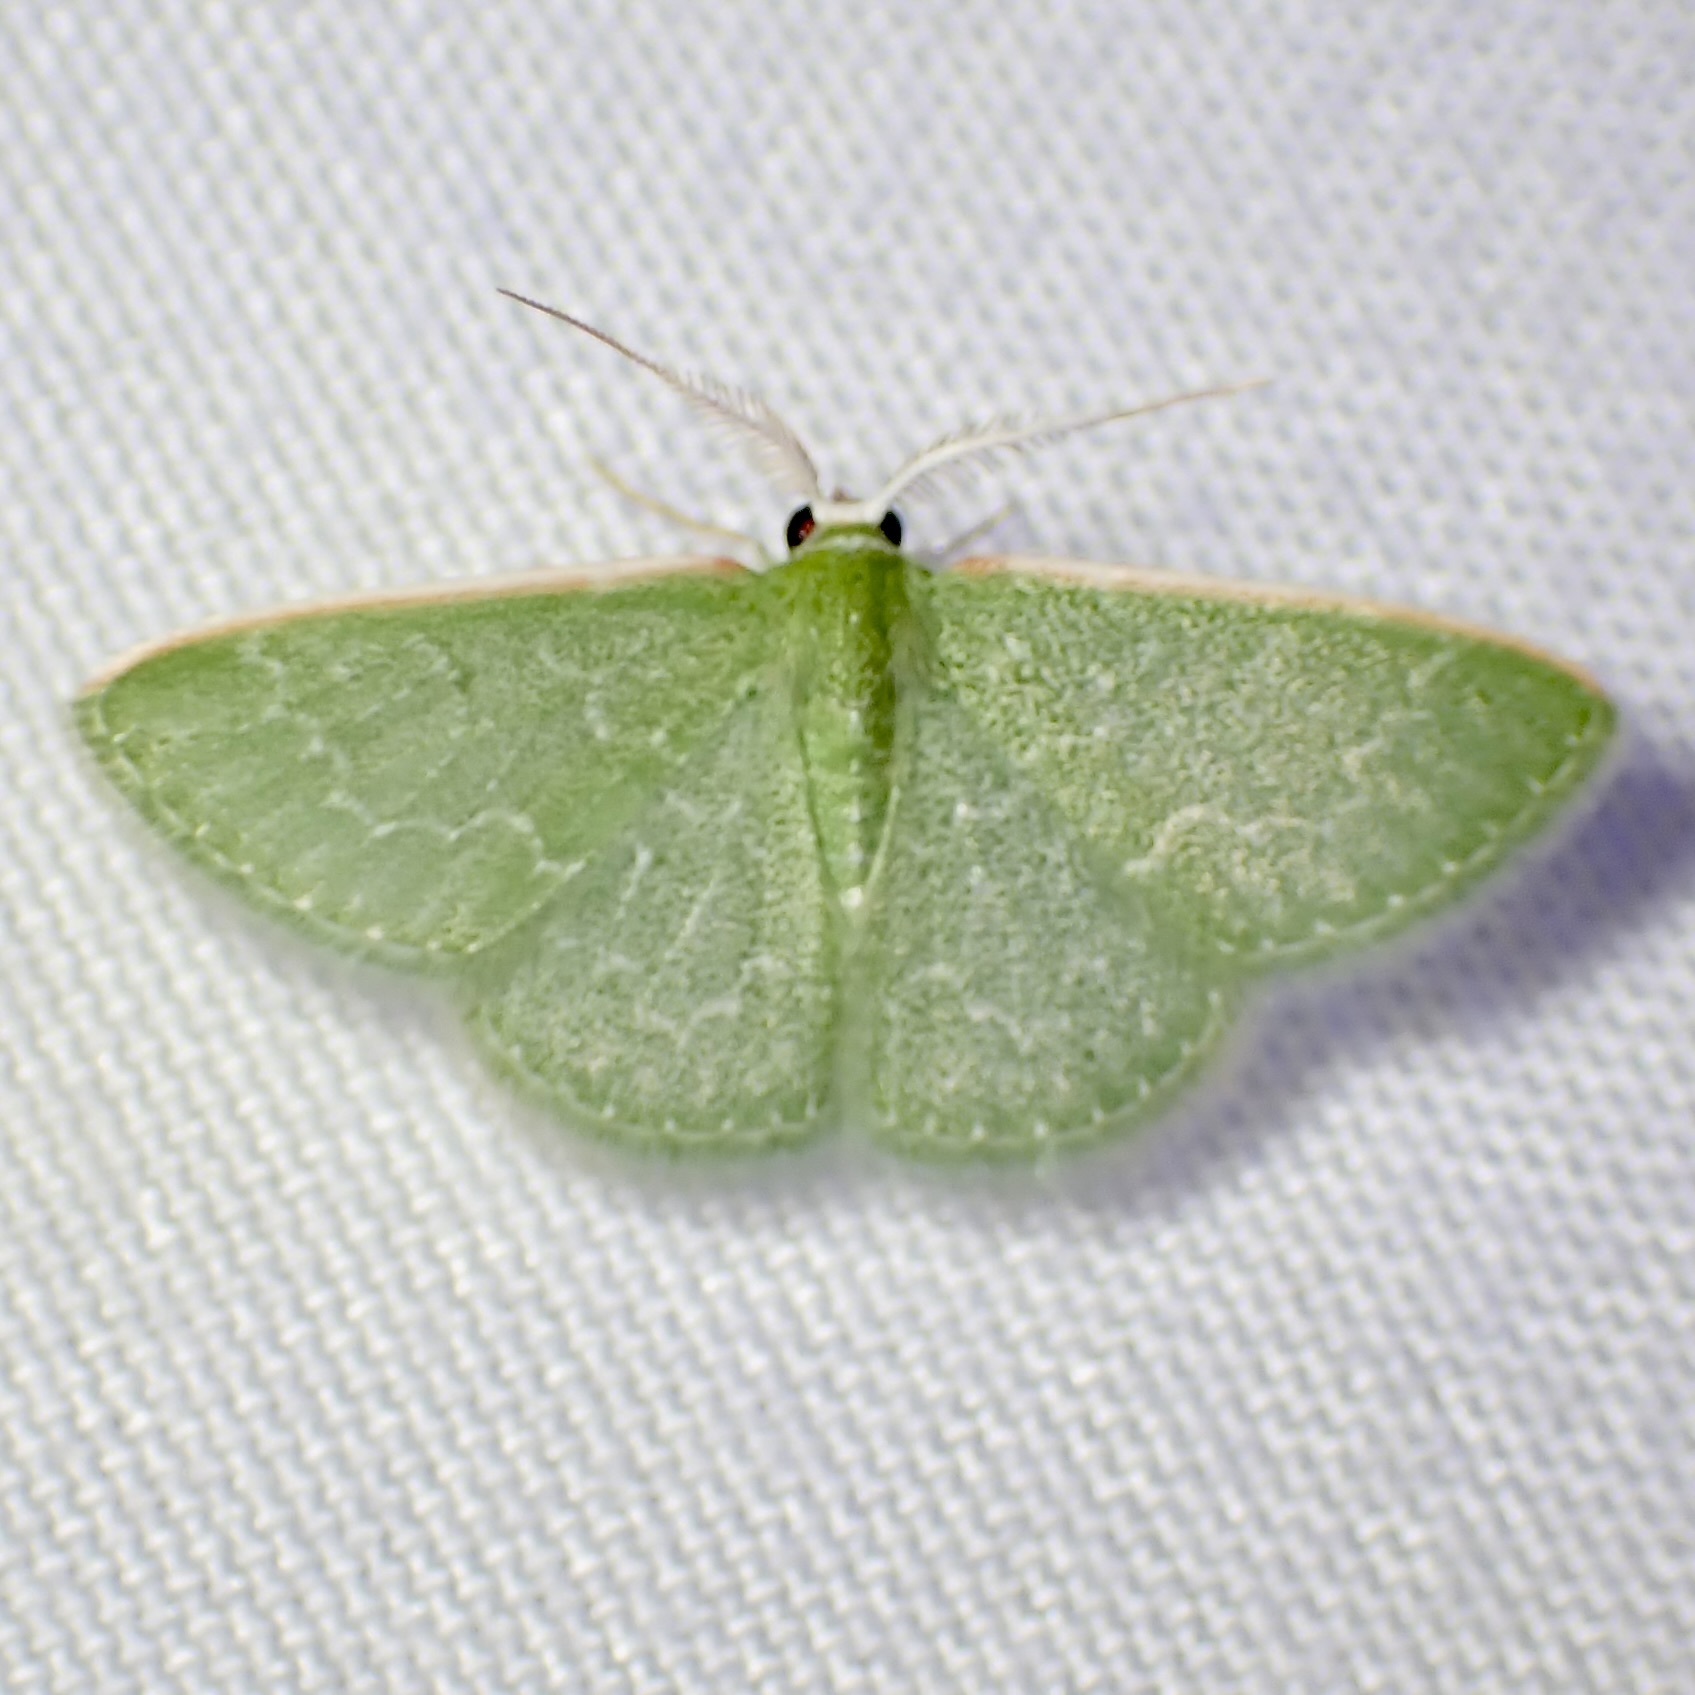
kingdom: Animalia
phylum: Arthropoda
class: Insecta
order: Lepidoptera
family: Geometridae
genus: Synchlora
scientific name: Synchlora frondaria
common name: Southern emerald
